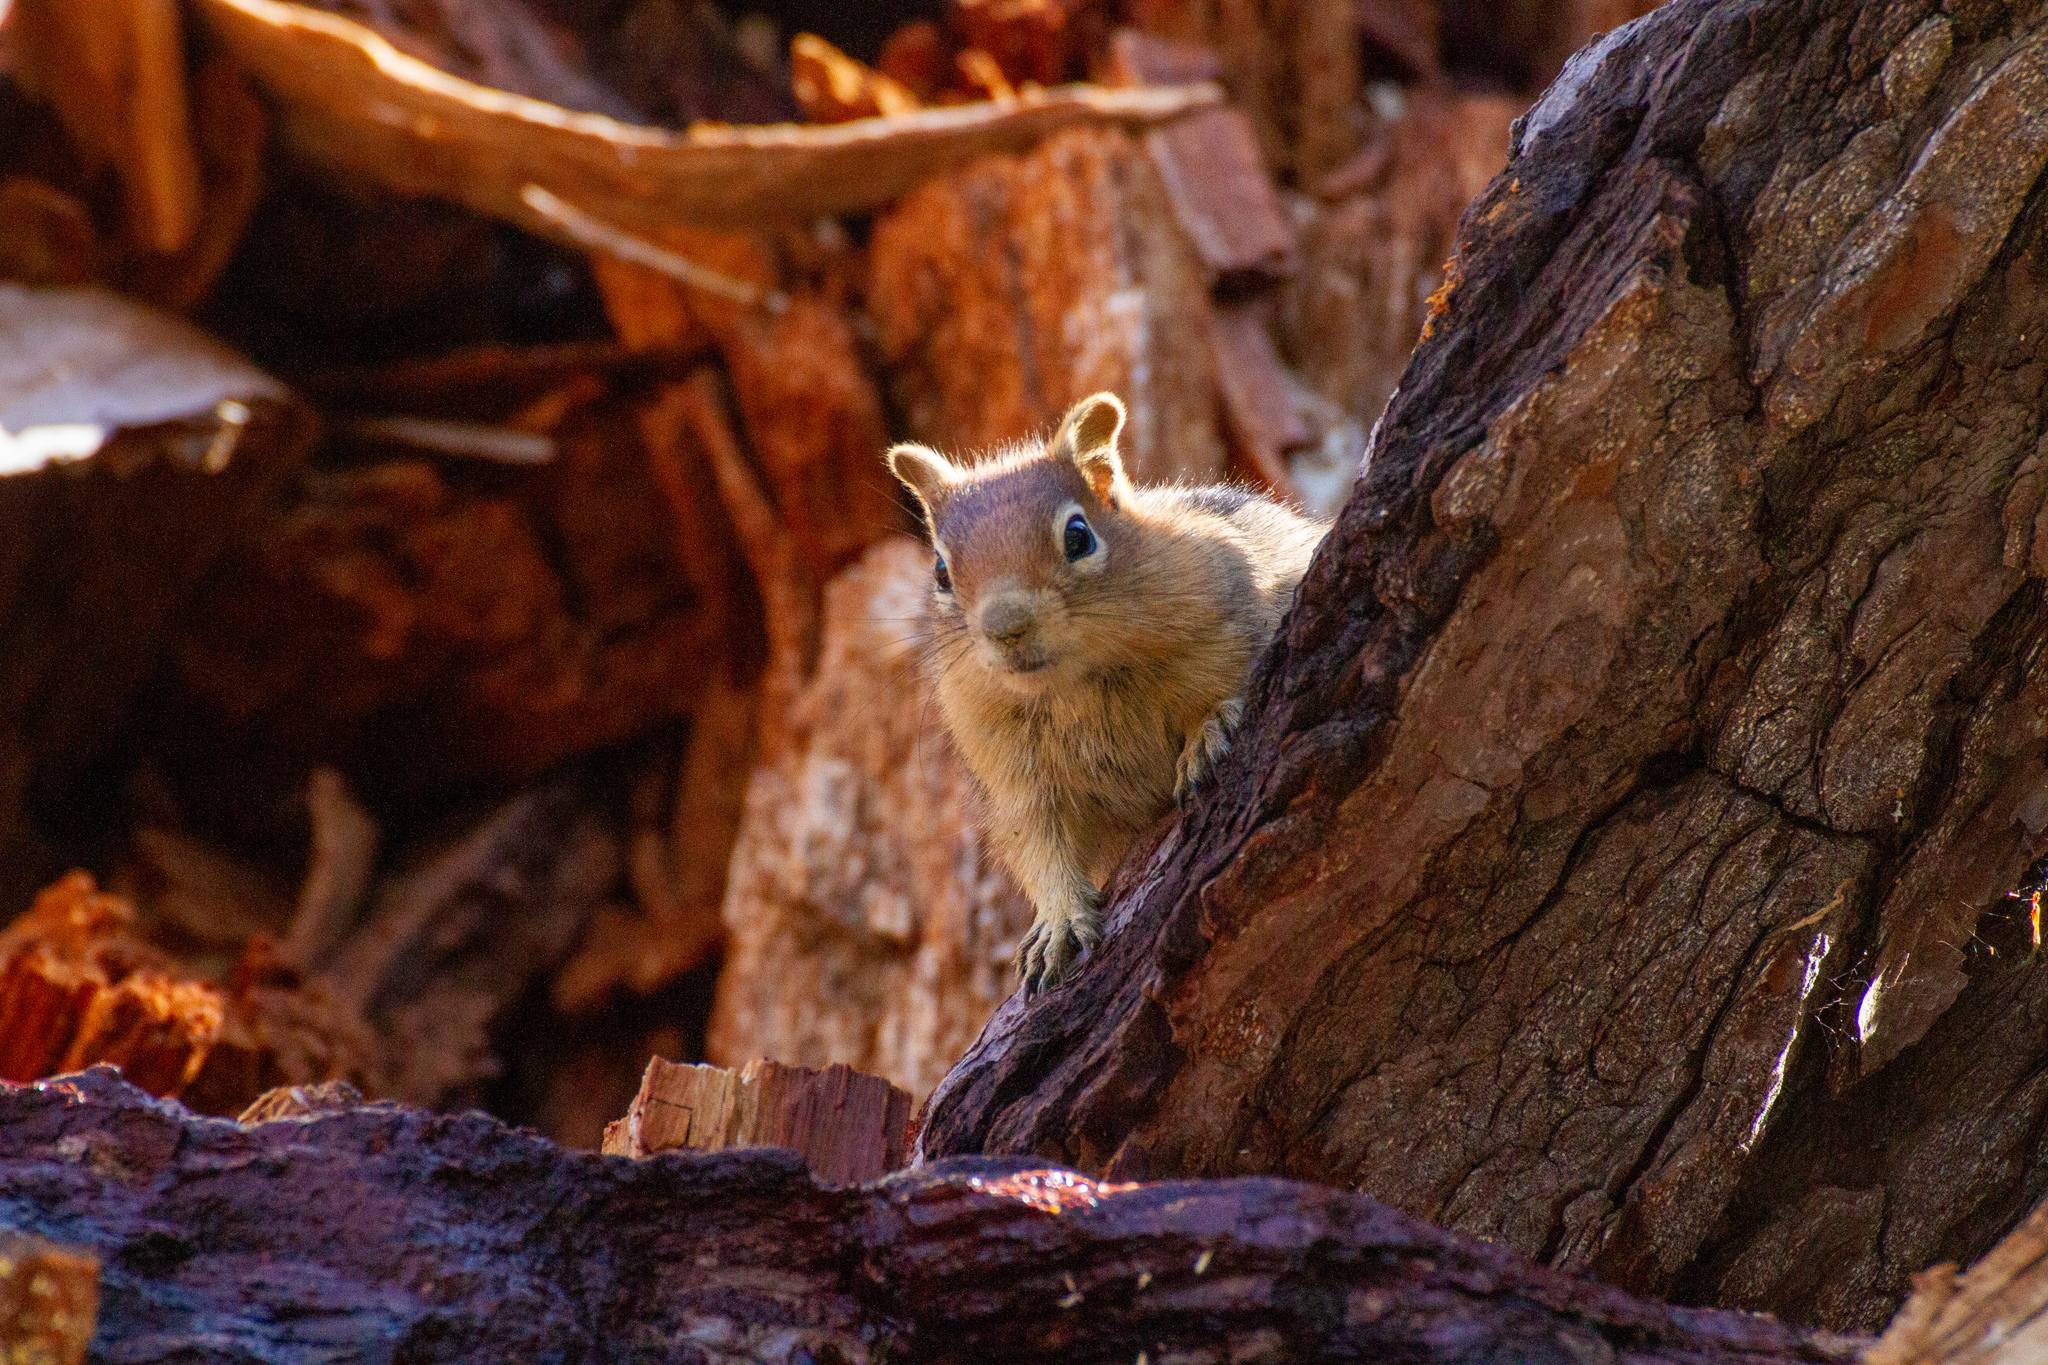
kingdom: Animalia
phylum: Chordata
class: Mammalia
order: Rodentia
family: Sciuridae
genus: Callospermophilus
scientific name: Callospermophilus lateralis
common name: Golden-mantled ground squirrel
